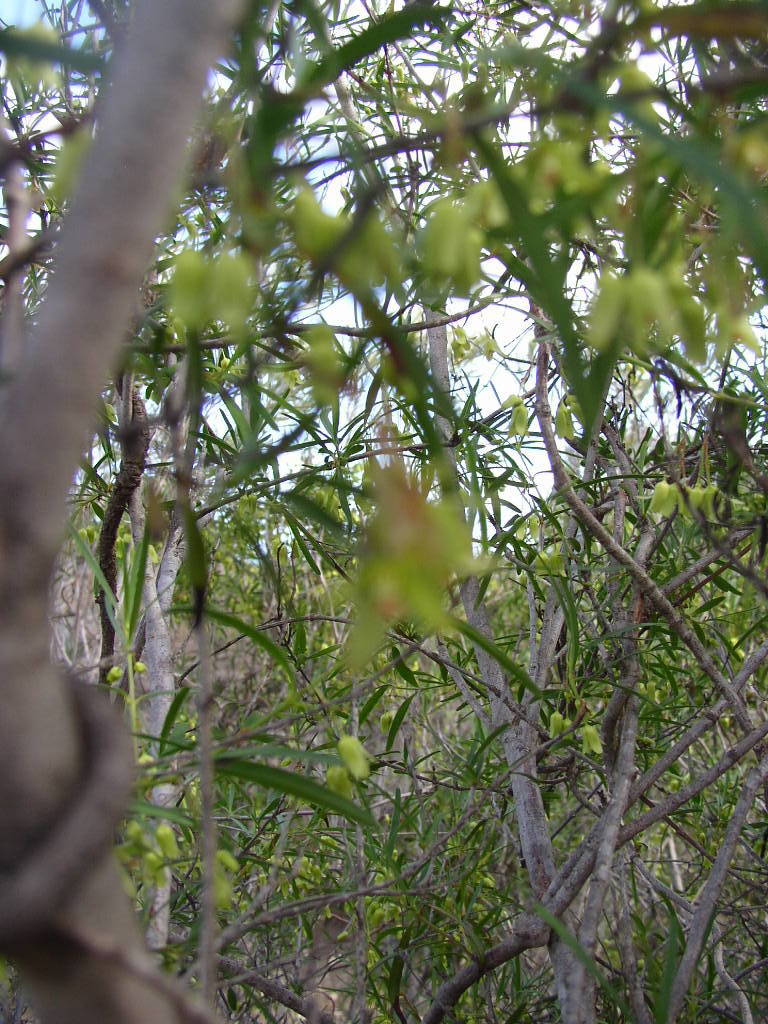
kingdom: Plantae
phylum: Tracheophyta
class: Magnoliopsida
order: Saxifragales
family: Aphanopetalaceae
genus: Aphanopetalum
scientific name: Aphanopetalum clematideum
